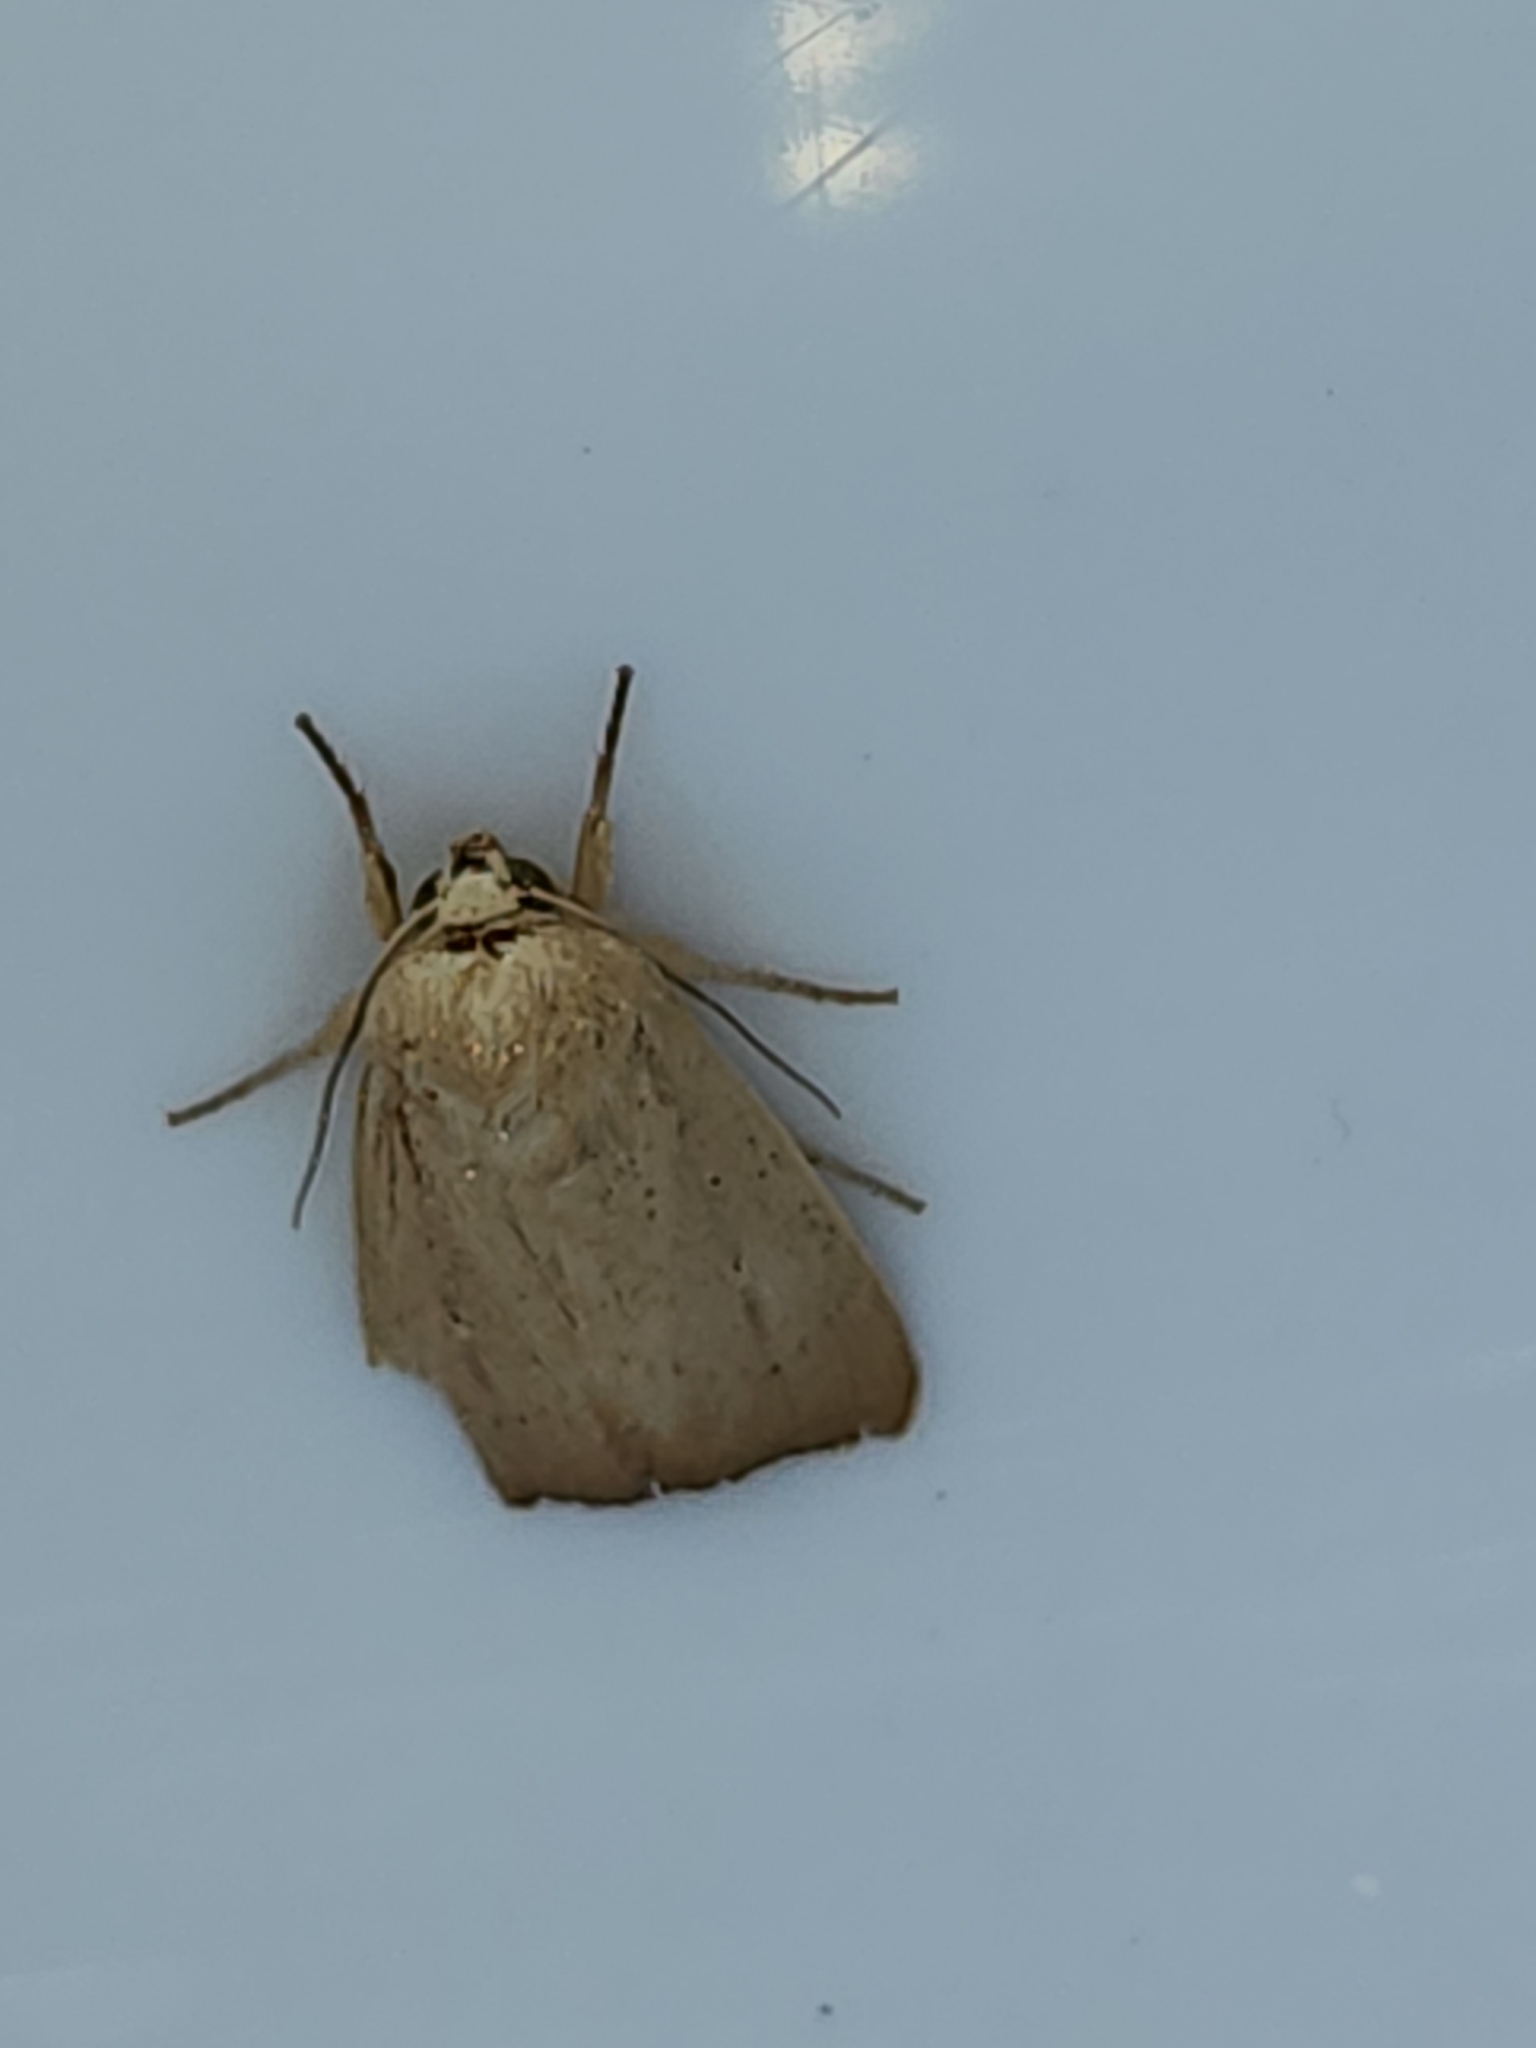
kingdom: Animalia
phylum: Arthropoda
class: Insecta
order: Lepidoptera
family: Noctuidae
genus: Leucania
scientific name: Leucania abdominalis
